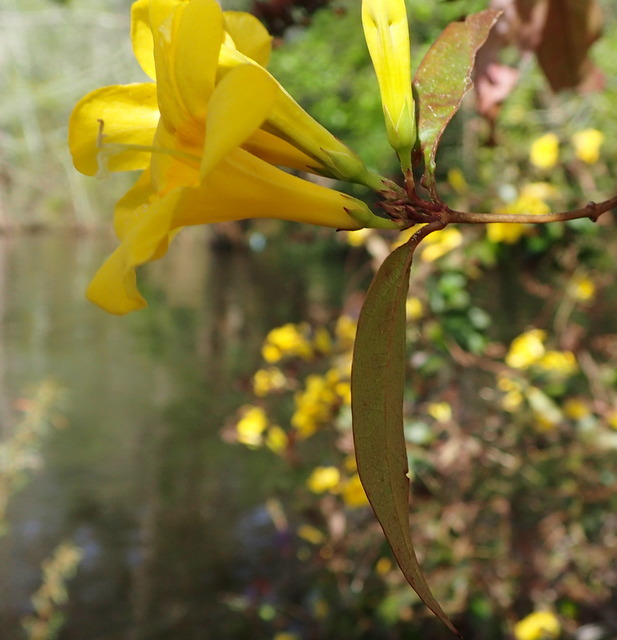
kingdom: Plantae
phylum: Tracheophyta
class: Magnoliopsida
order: Gentianales
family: Gelsemiaceae
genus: Gelsemium
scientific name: Gelsemium rankinii
